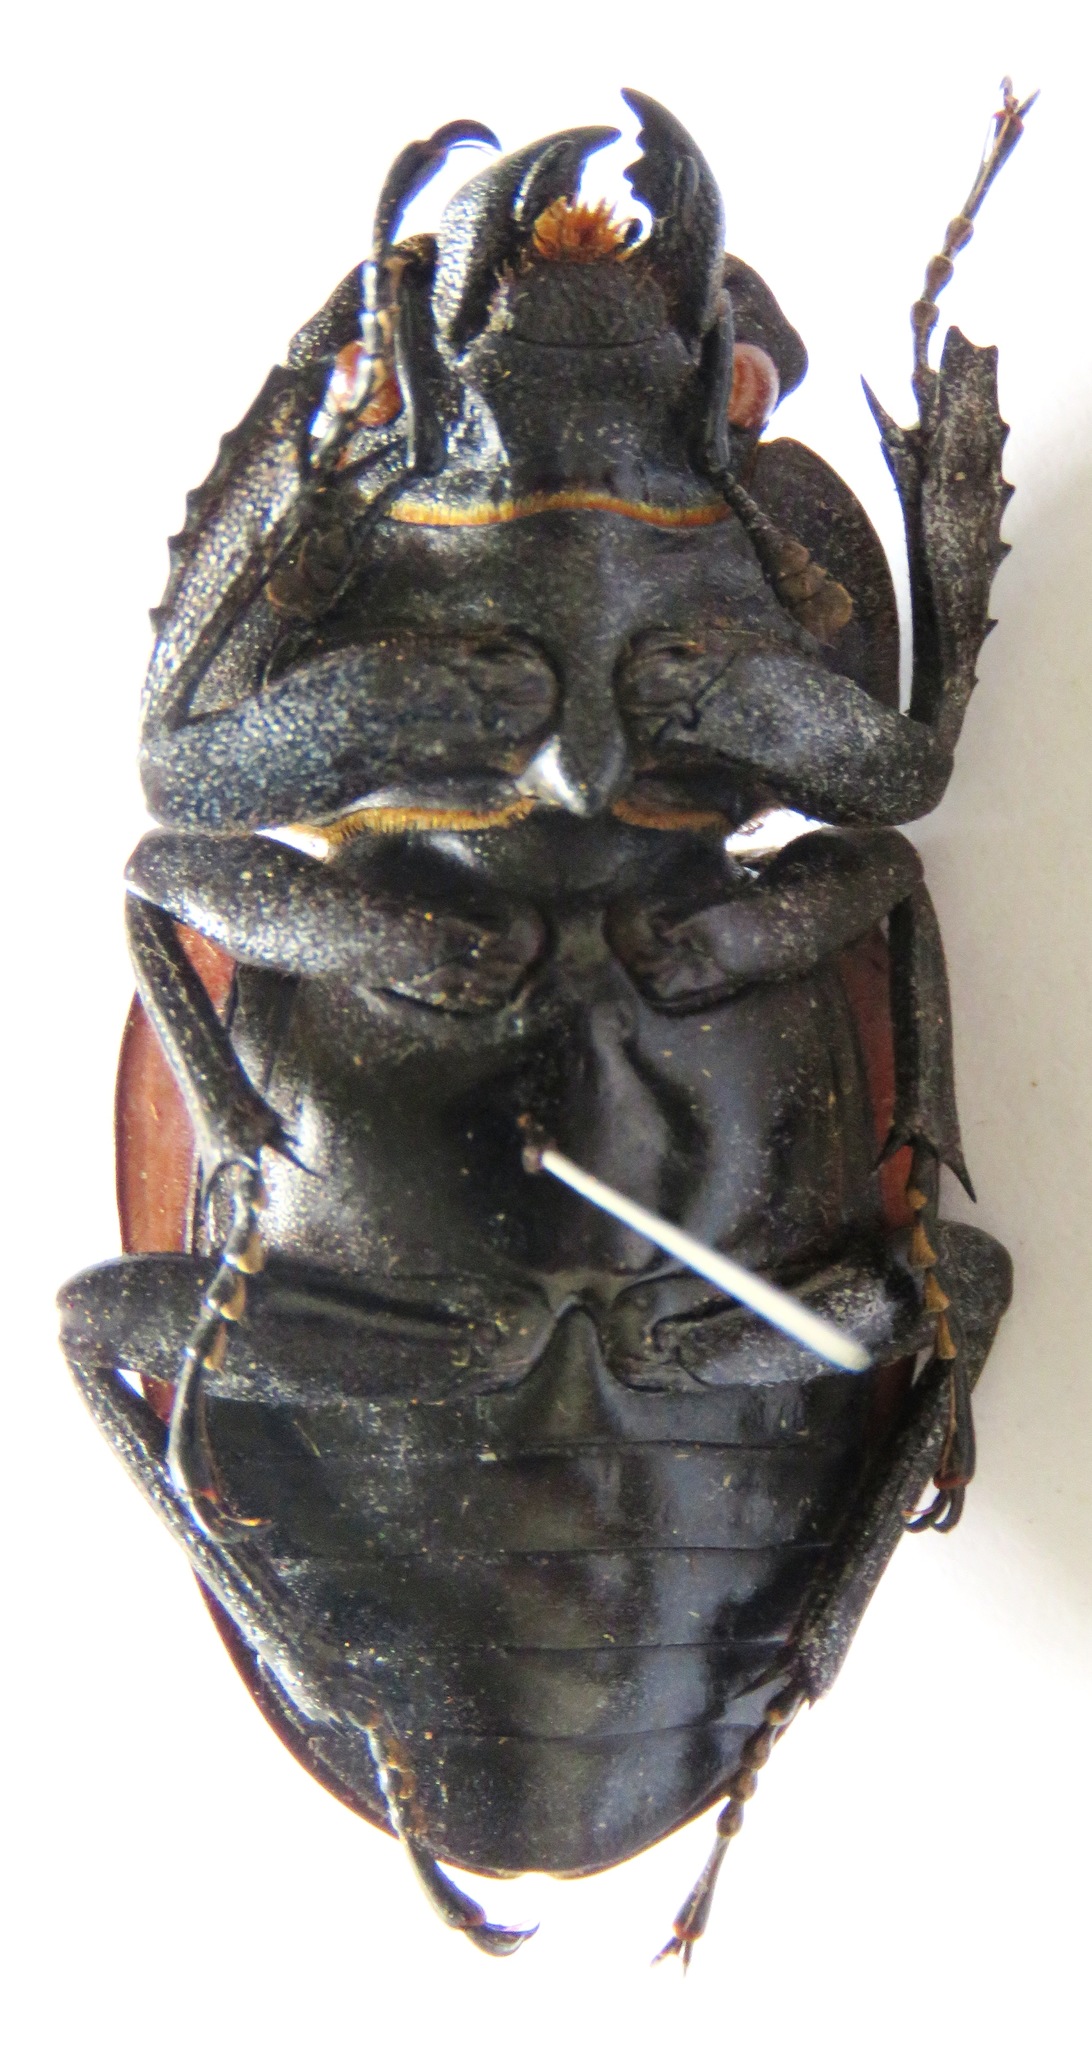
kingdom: Animalia
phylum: Arthropoda
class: Insecta
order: Coleoptera
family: Lucanidae
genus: Odontolabis
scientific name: Odontolabis cuvera
